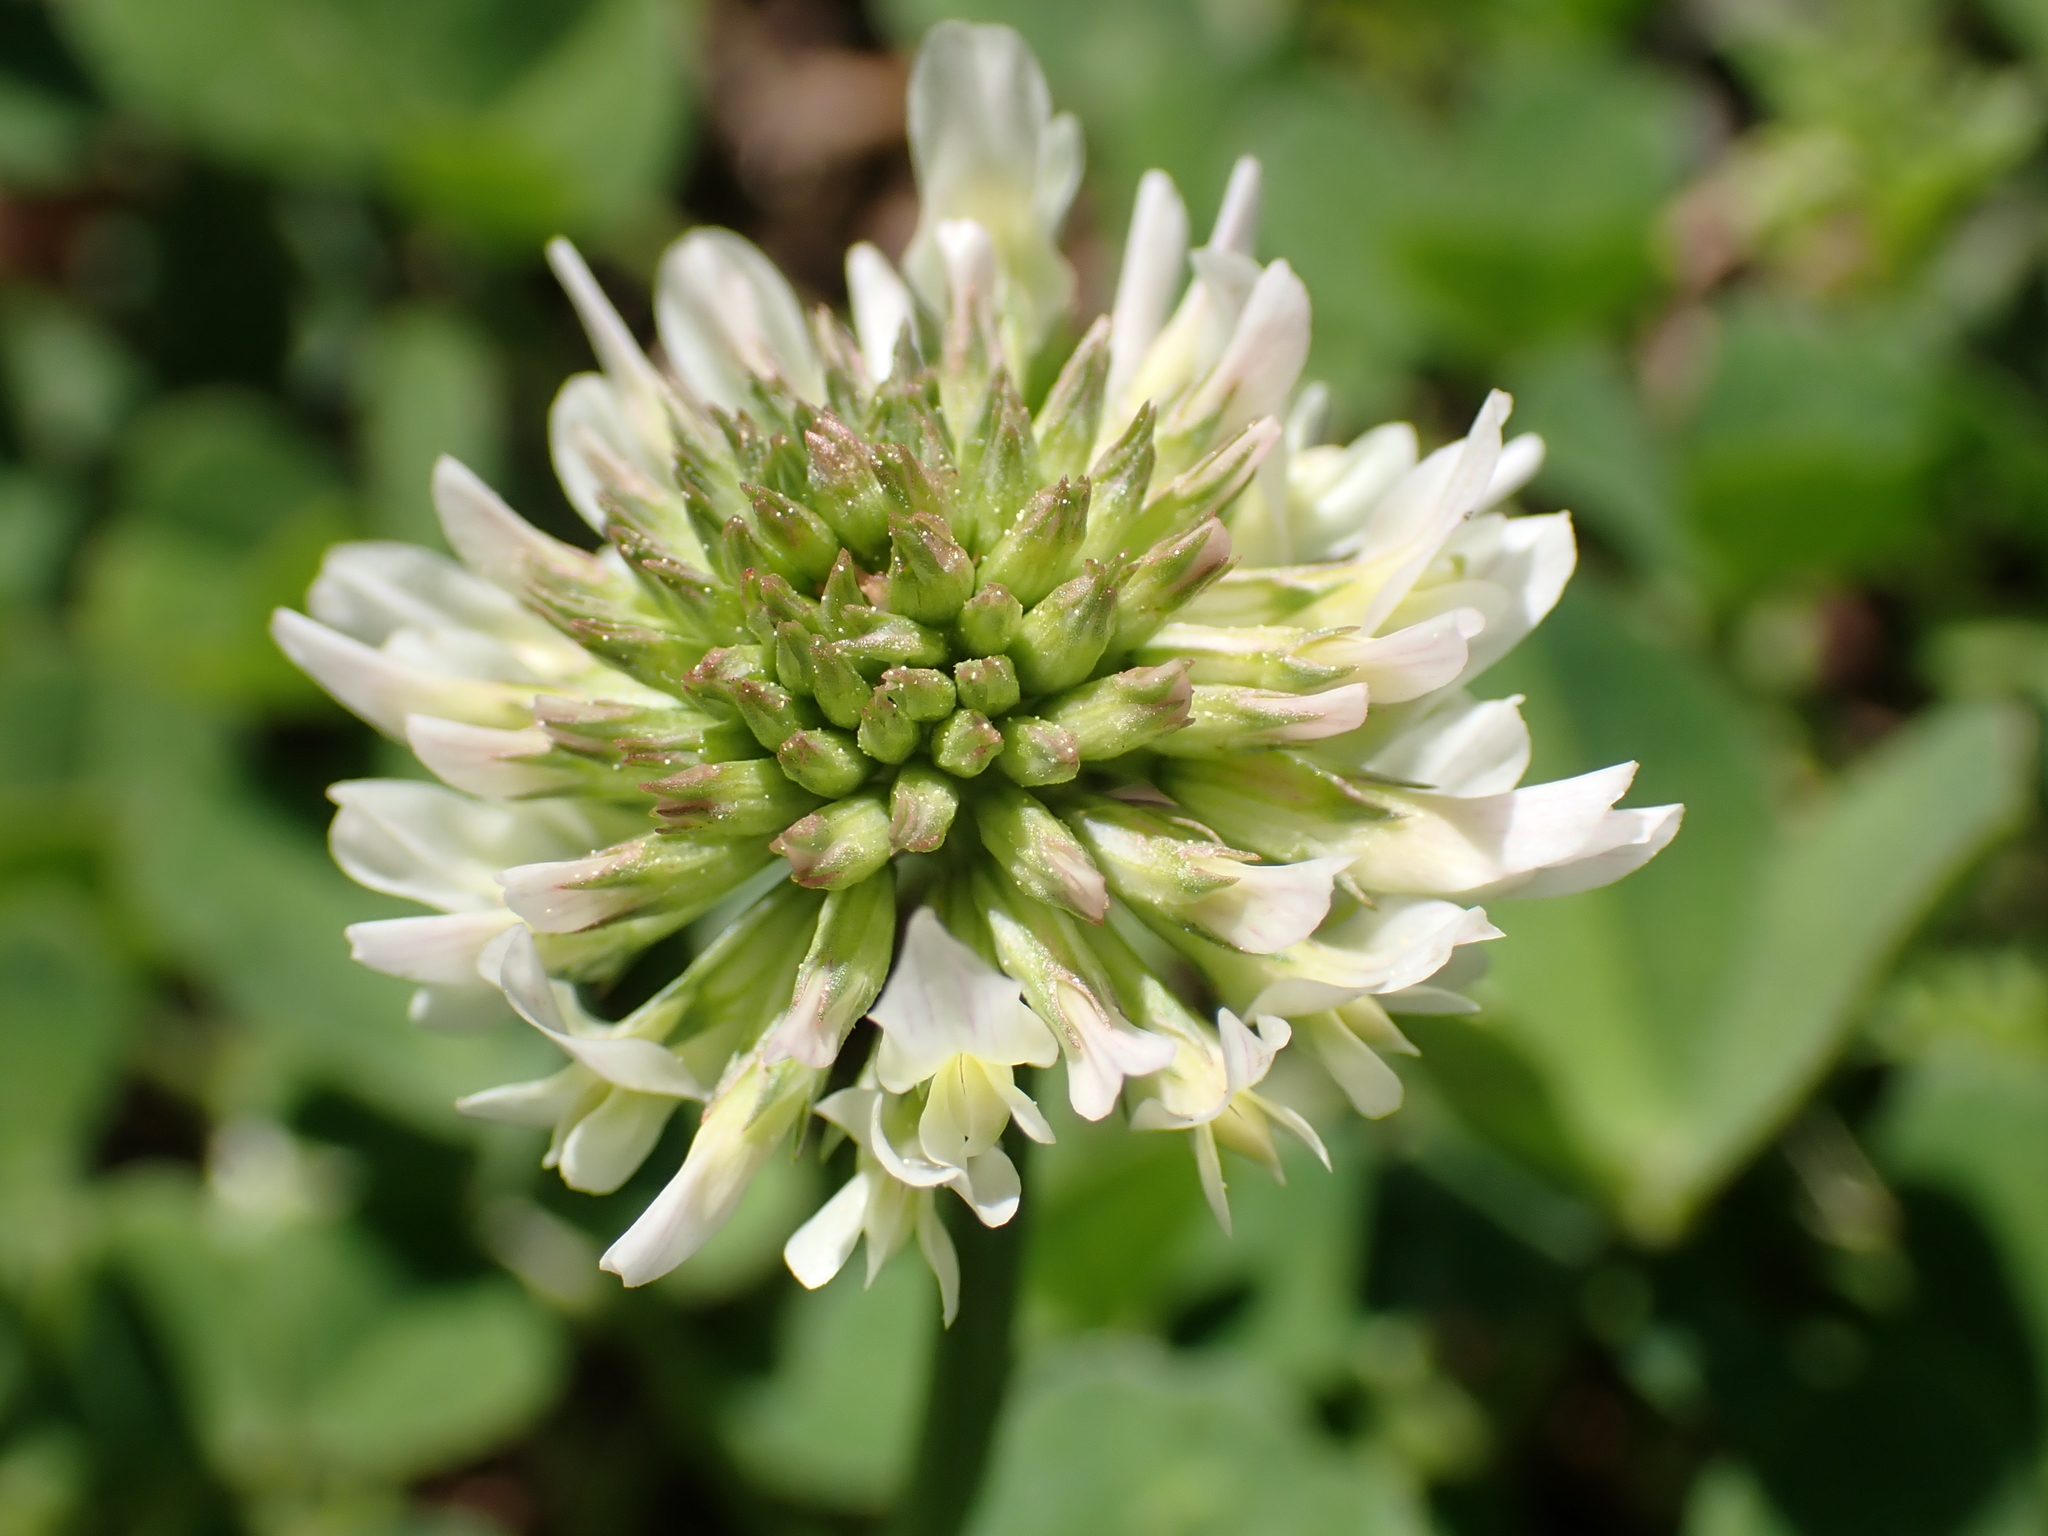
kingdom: Plantae
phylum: Tracheophyta
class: Magnoliopsida
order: Fabales
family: Fabaceae
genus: Trifolium
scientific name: Trifolium repens
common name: White clover
